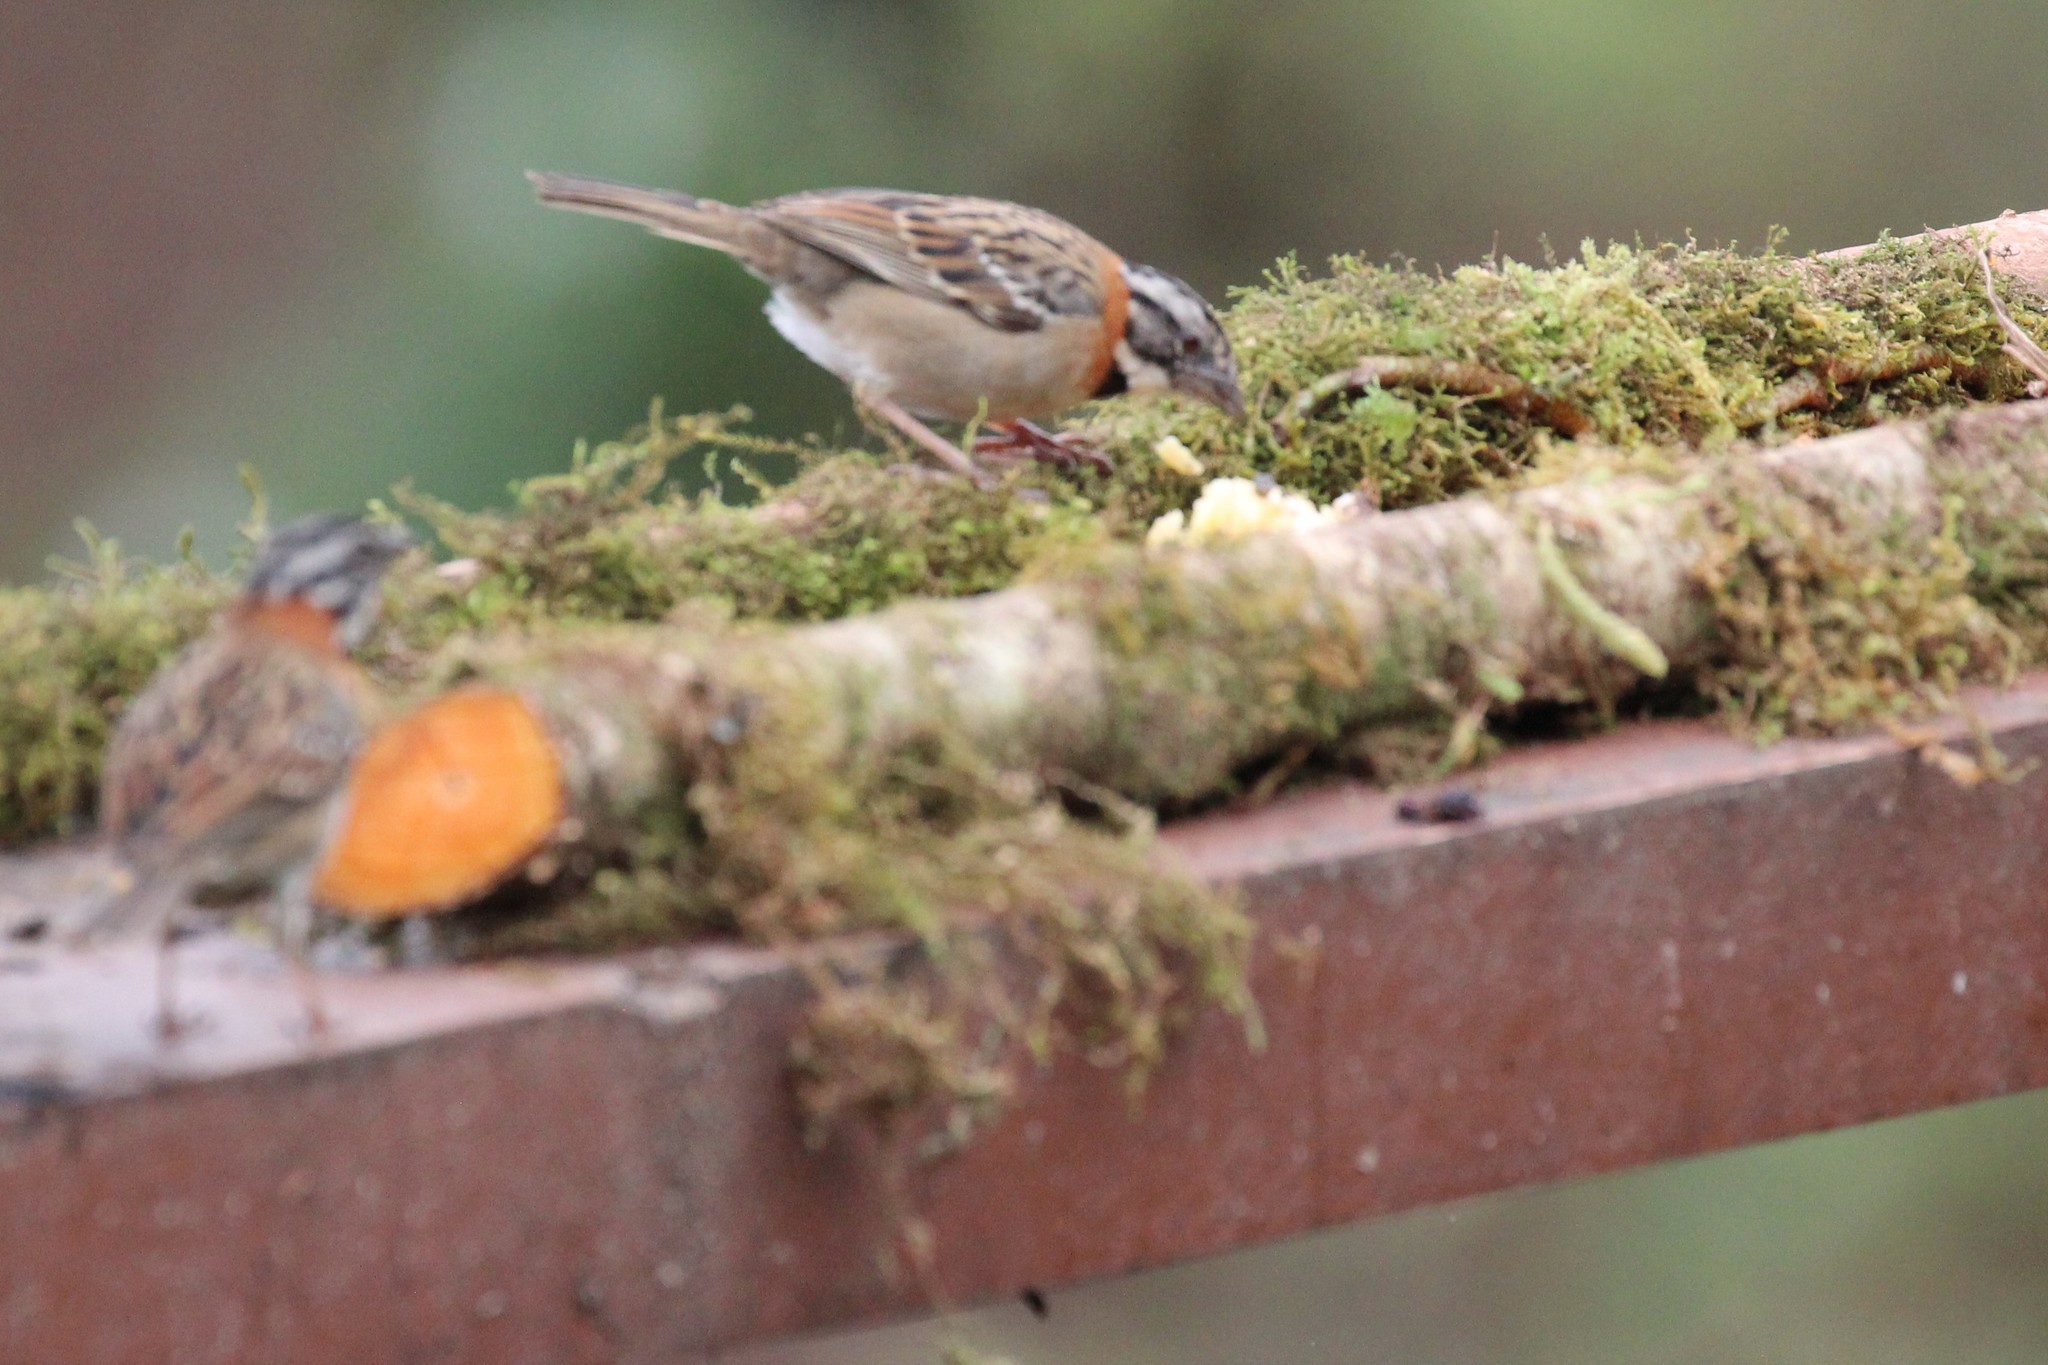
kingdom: Animalia
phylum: Chordata
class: Aves
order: Passeriformes
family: Passerellidae
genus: Zonotrichia
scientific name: Zonotrichia capensis
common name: Rufous-collared sparrow
